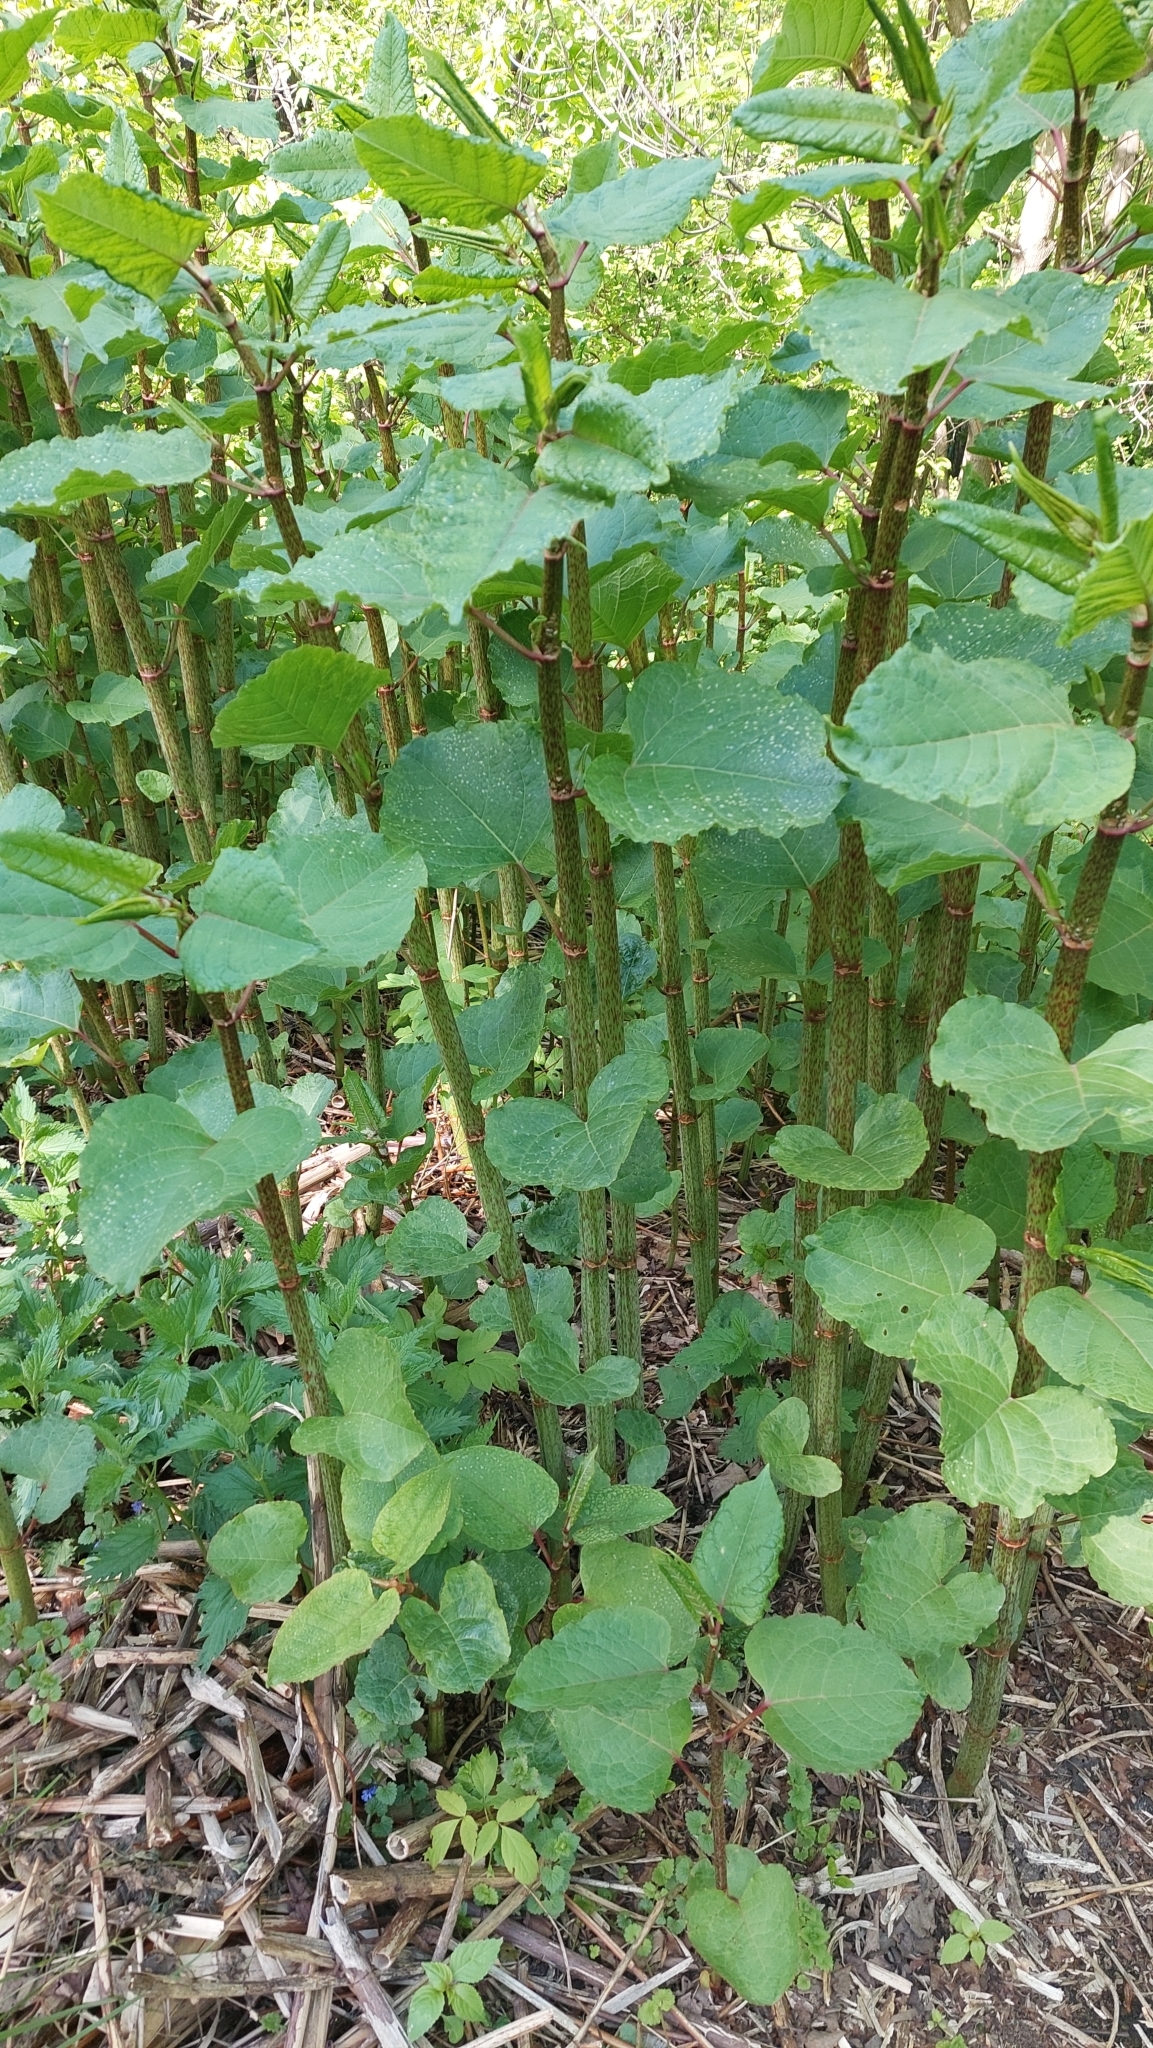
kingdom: Plantae
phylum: Tracheophyta
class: Magnoliopsida
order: Caryophyllales
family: Polygonaceae
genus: Reynoutria
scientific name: Reynoutria bohemica
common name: Bohemian knotweed
